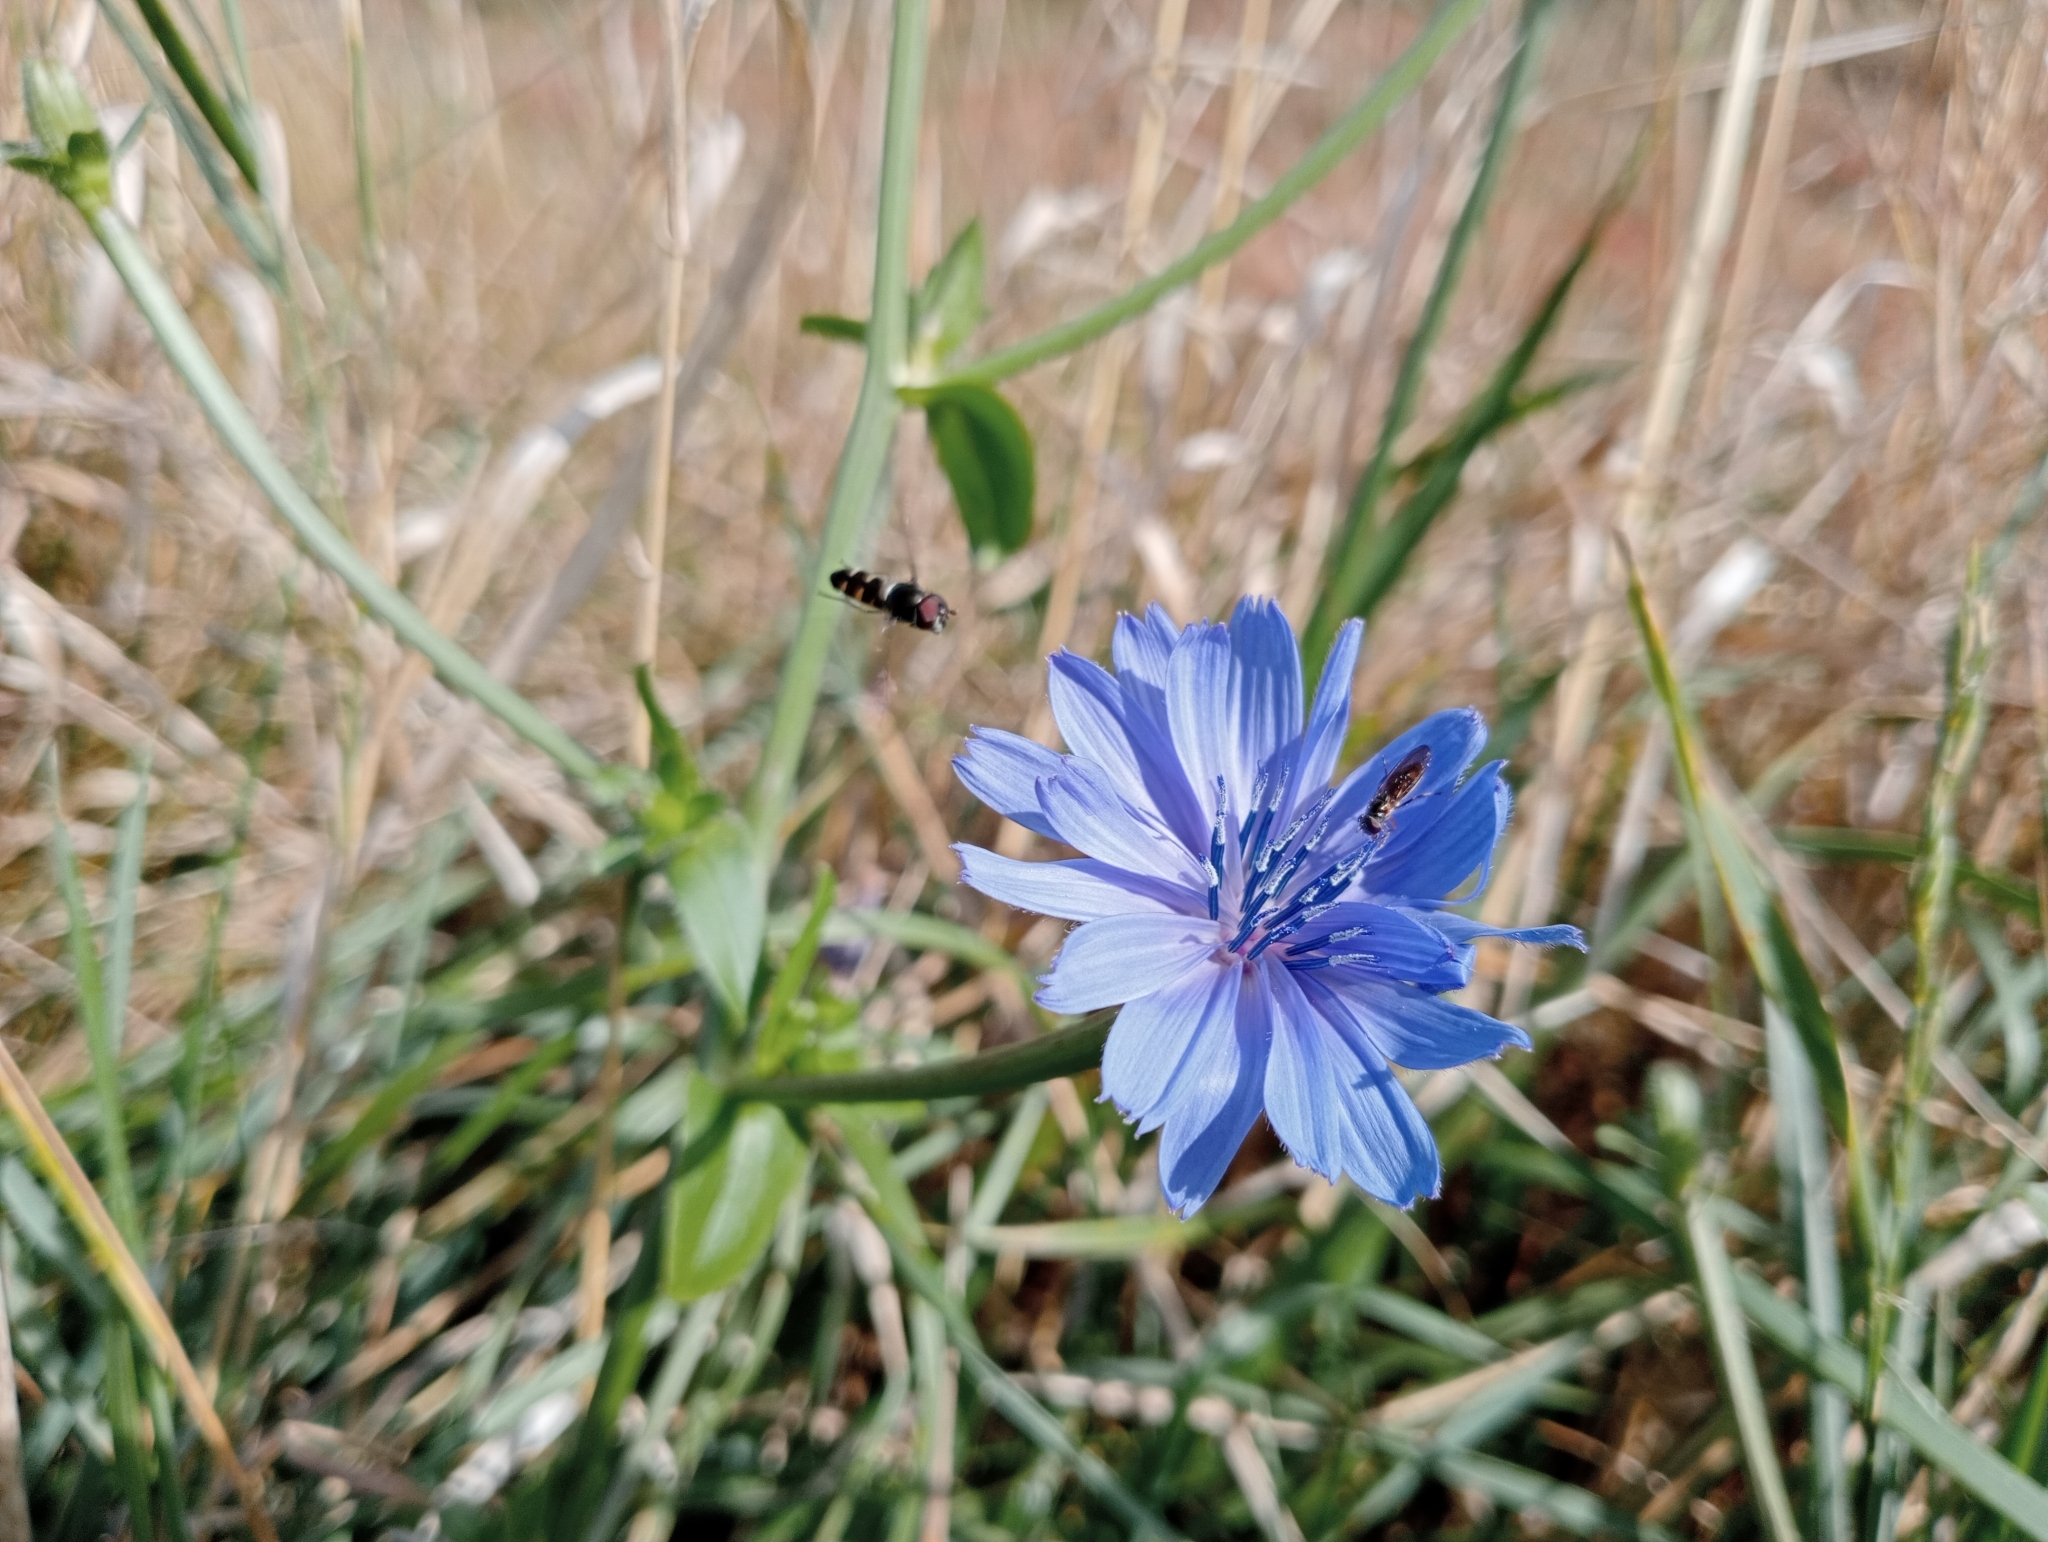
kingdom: Plantae
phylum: Tracheophyta
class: Magnoliopsida
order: Asterales
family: Asteraceae
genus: Cichorium
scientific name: Cichorium intybus
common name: Chicory
